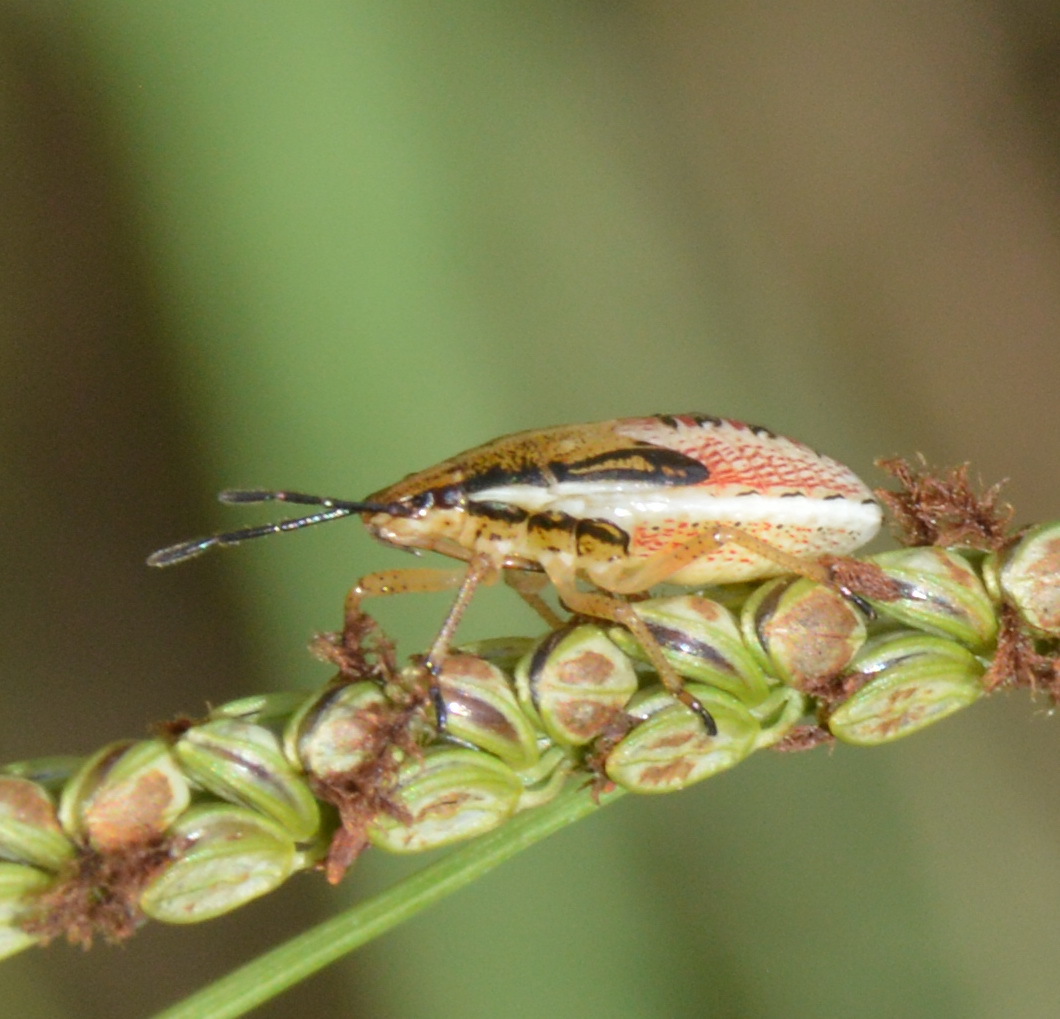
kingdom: Animalia
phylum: Arthropoda
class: Insecta
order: Hemiptera
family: Pentatomidae
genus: Oebalus
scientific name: Oebalus pugnax
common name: Rice stink bug
